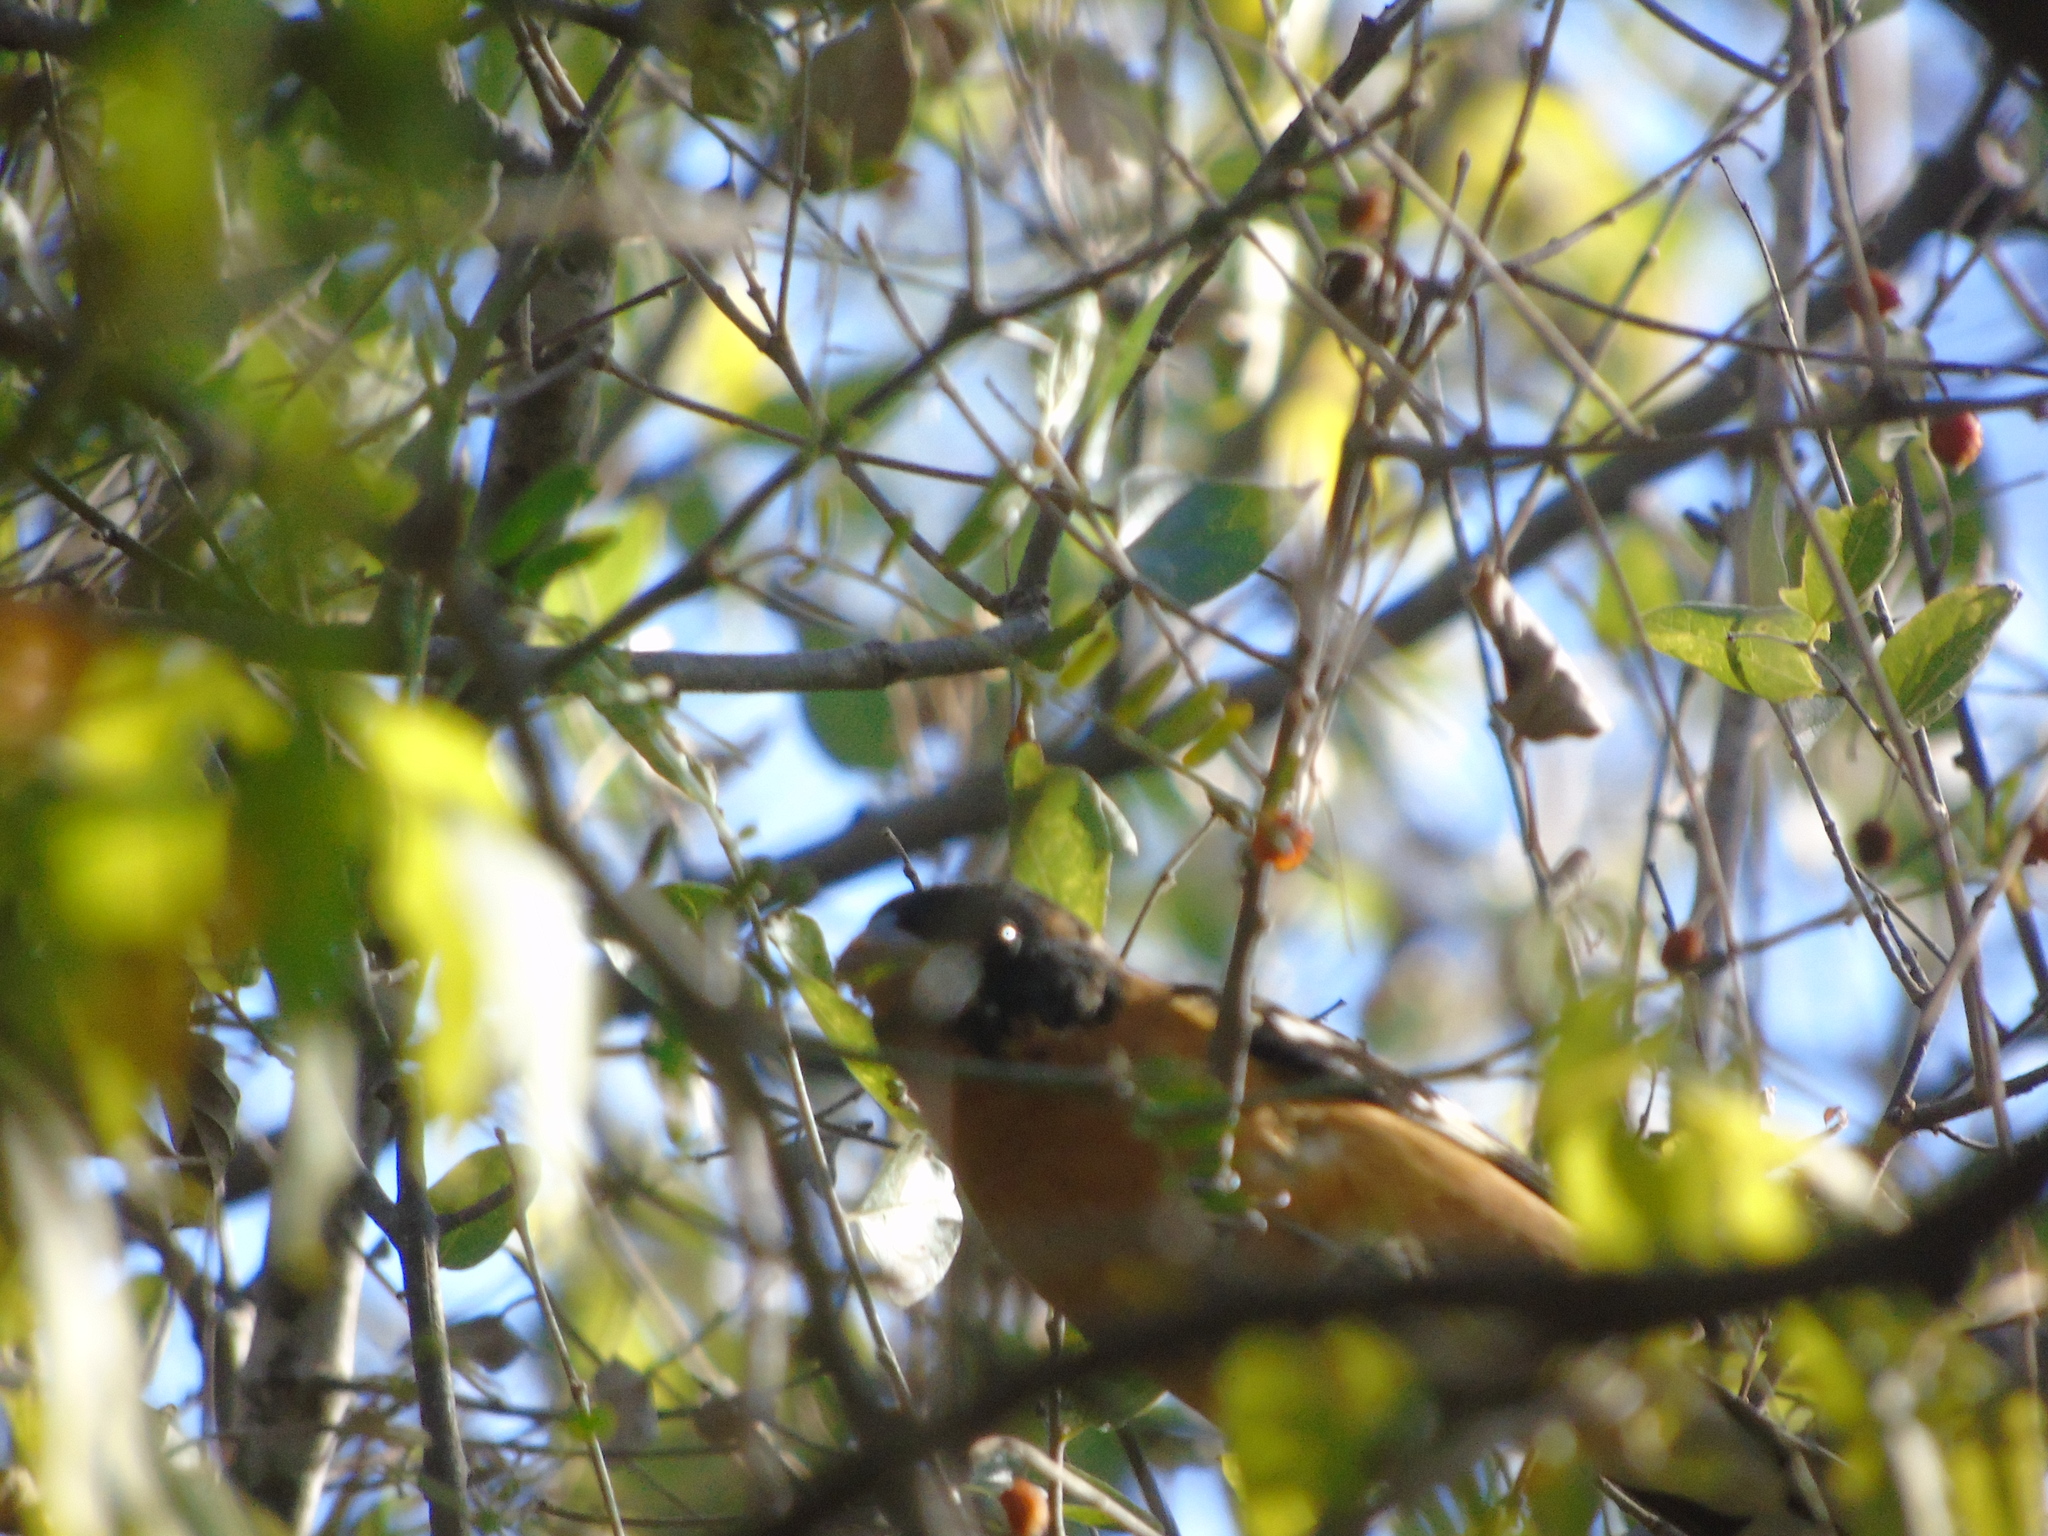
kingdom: Animalia
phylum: Chordata
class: Aves
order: Passeriformes
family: Cardinalidae
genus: Pheucticus
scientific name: Pheucticus melanocephalus
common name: Black-headed grosbeak
